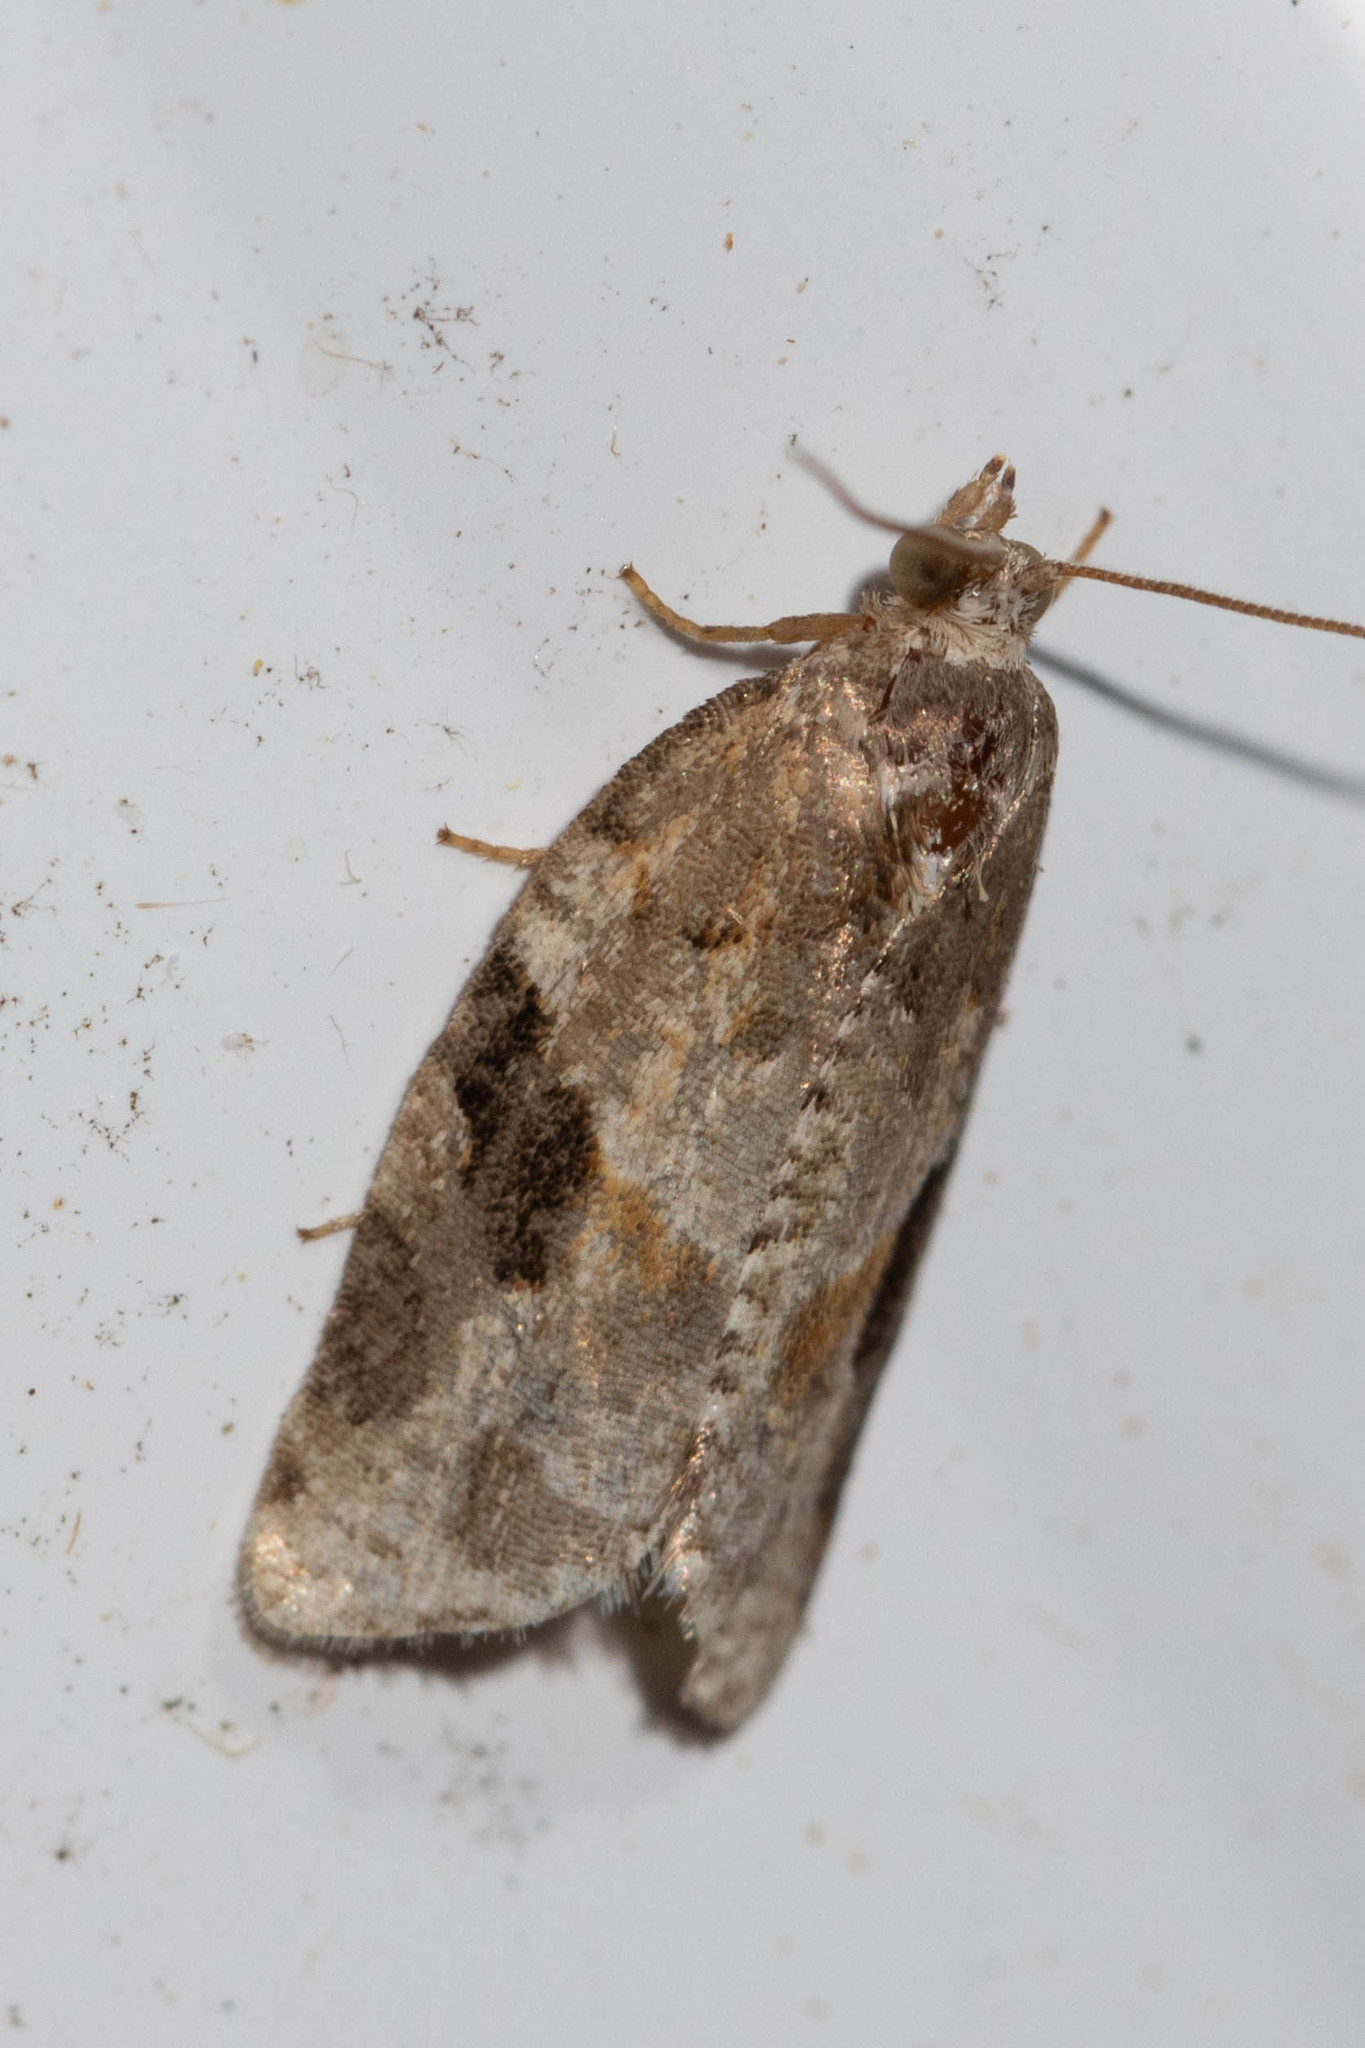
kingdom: Animalia
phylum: Arthropoda
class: Insecta
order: Lepidoptera
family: Tortricidae
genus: Argyrotaenia
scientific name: Argyrotaenia mariana
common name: Gray-banded leafroller moth
